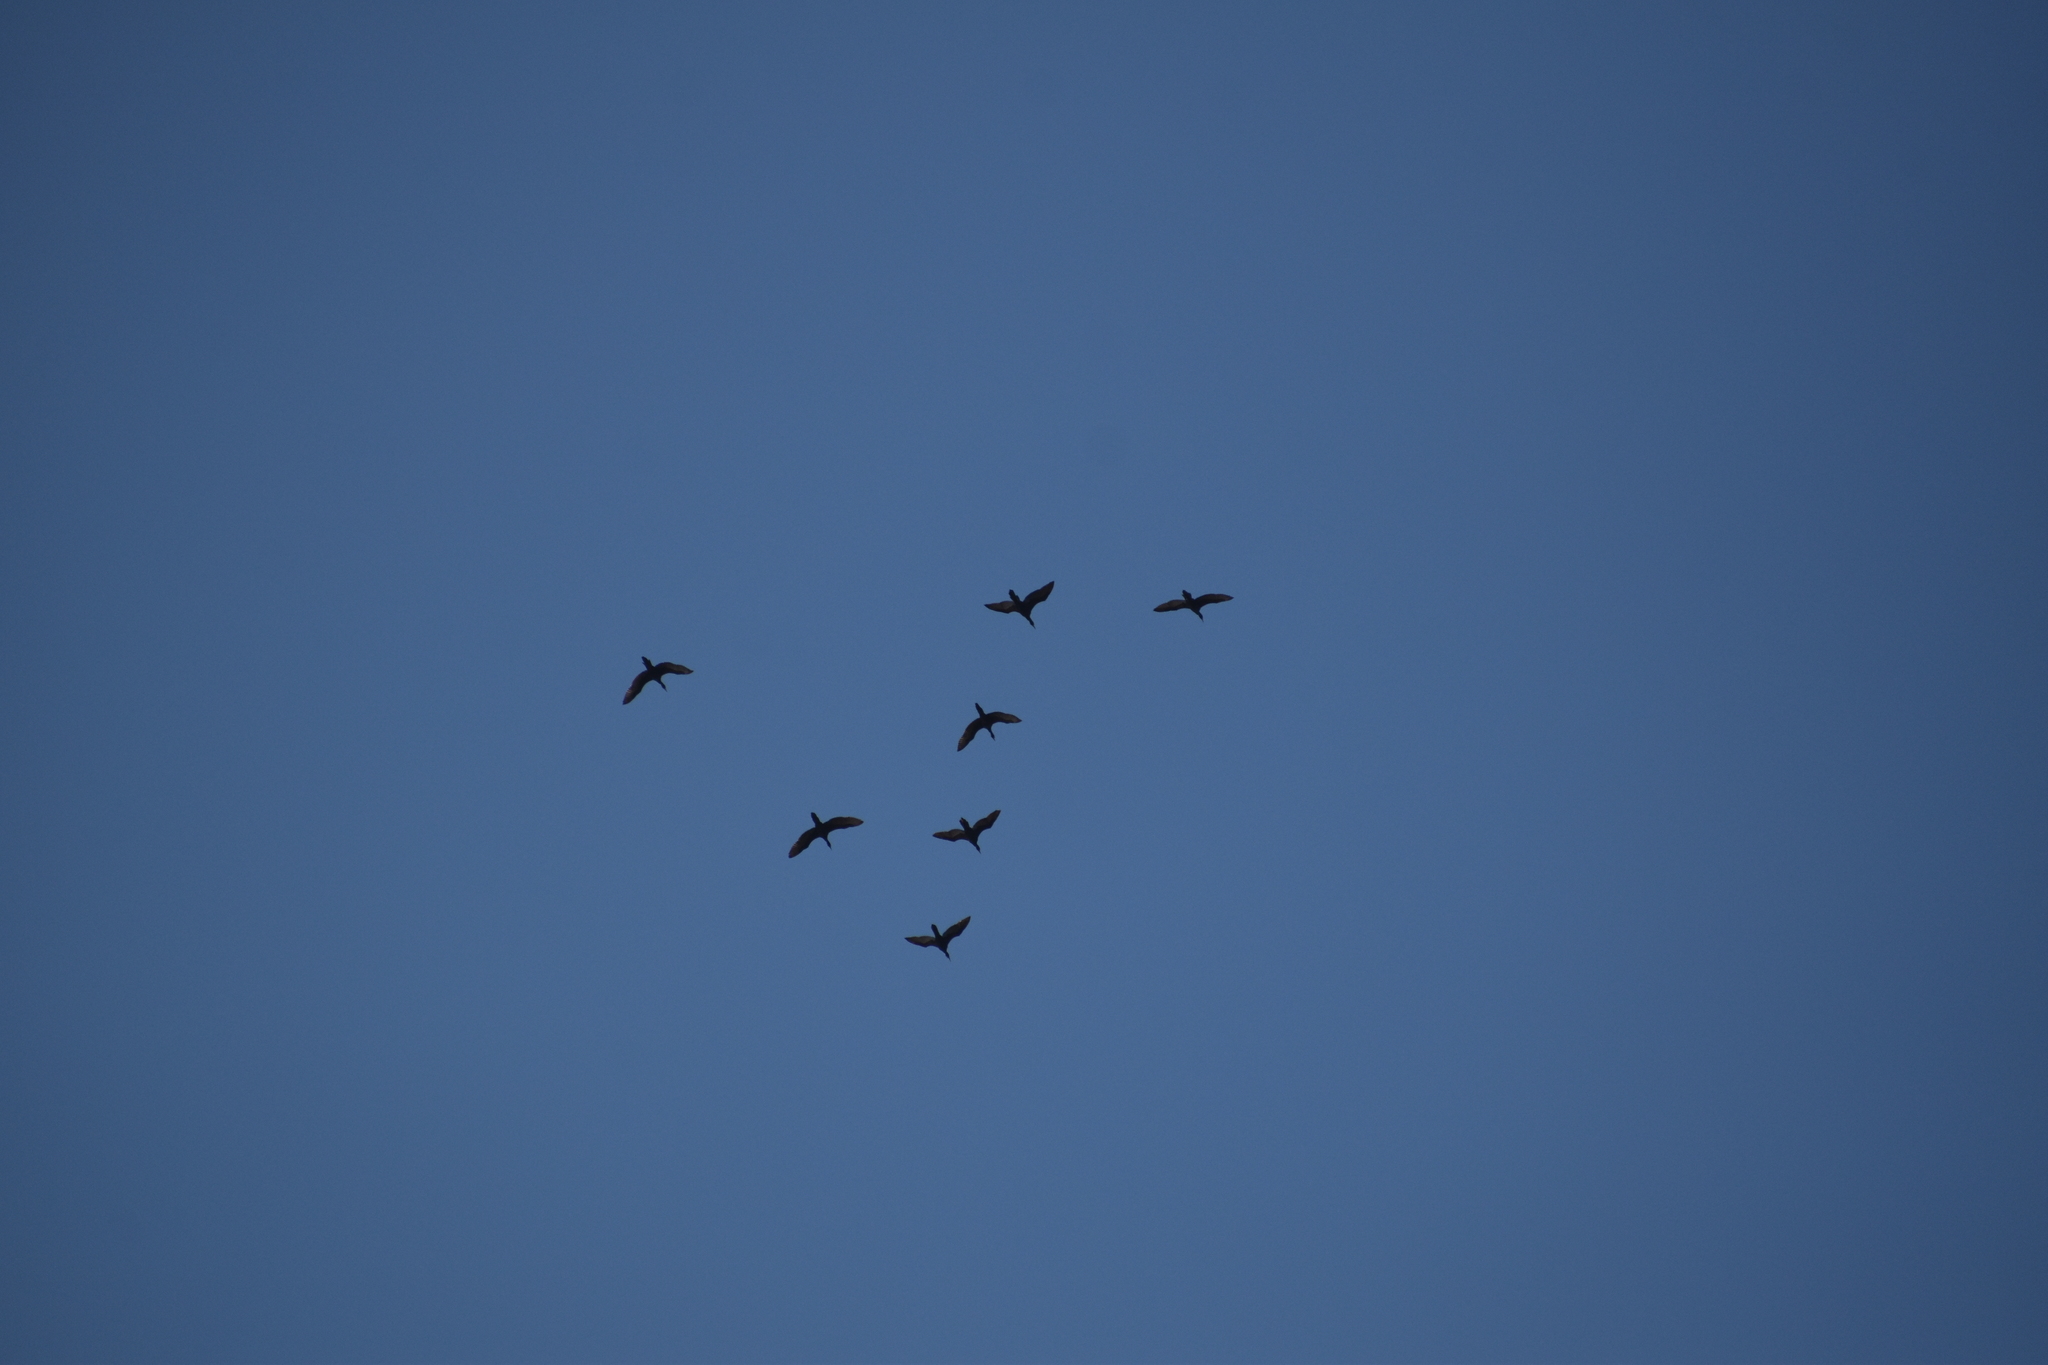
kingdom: Animalia
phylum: Chordata
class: Aves
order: Suliformes
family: Phalacrocoracidae
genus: Phalacrocorax
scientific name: Phalacrocorax brasilianus
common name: Neotropic cormorant
